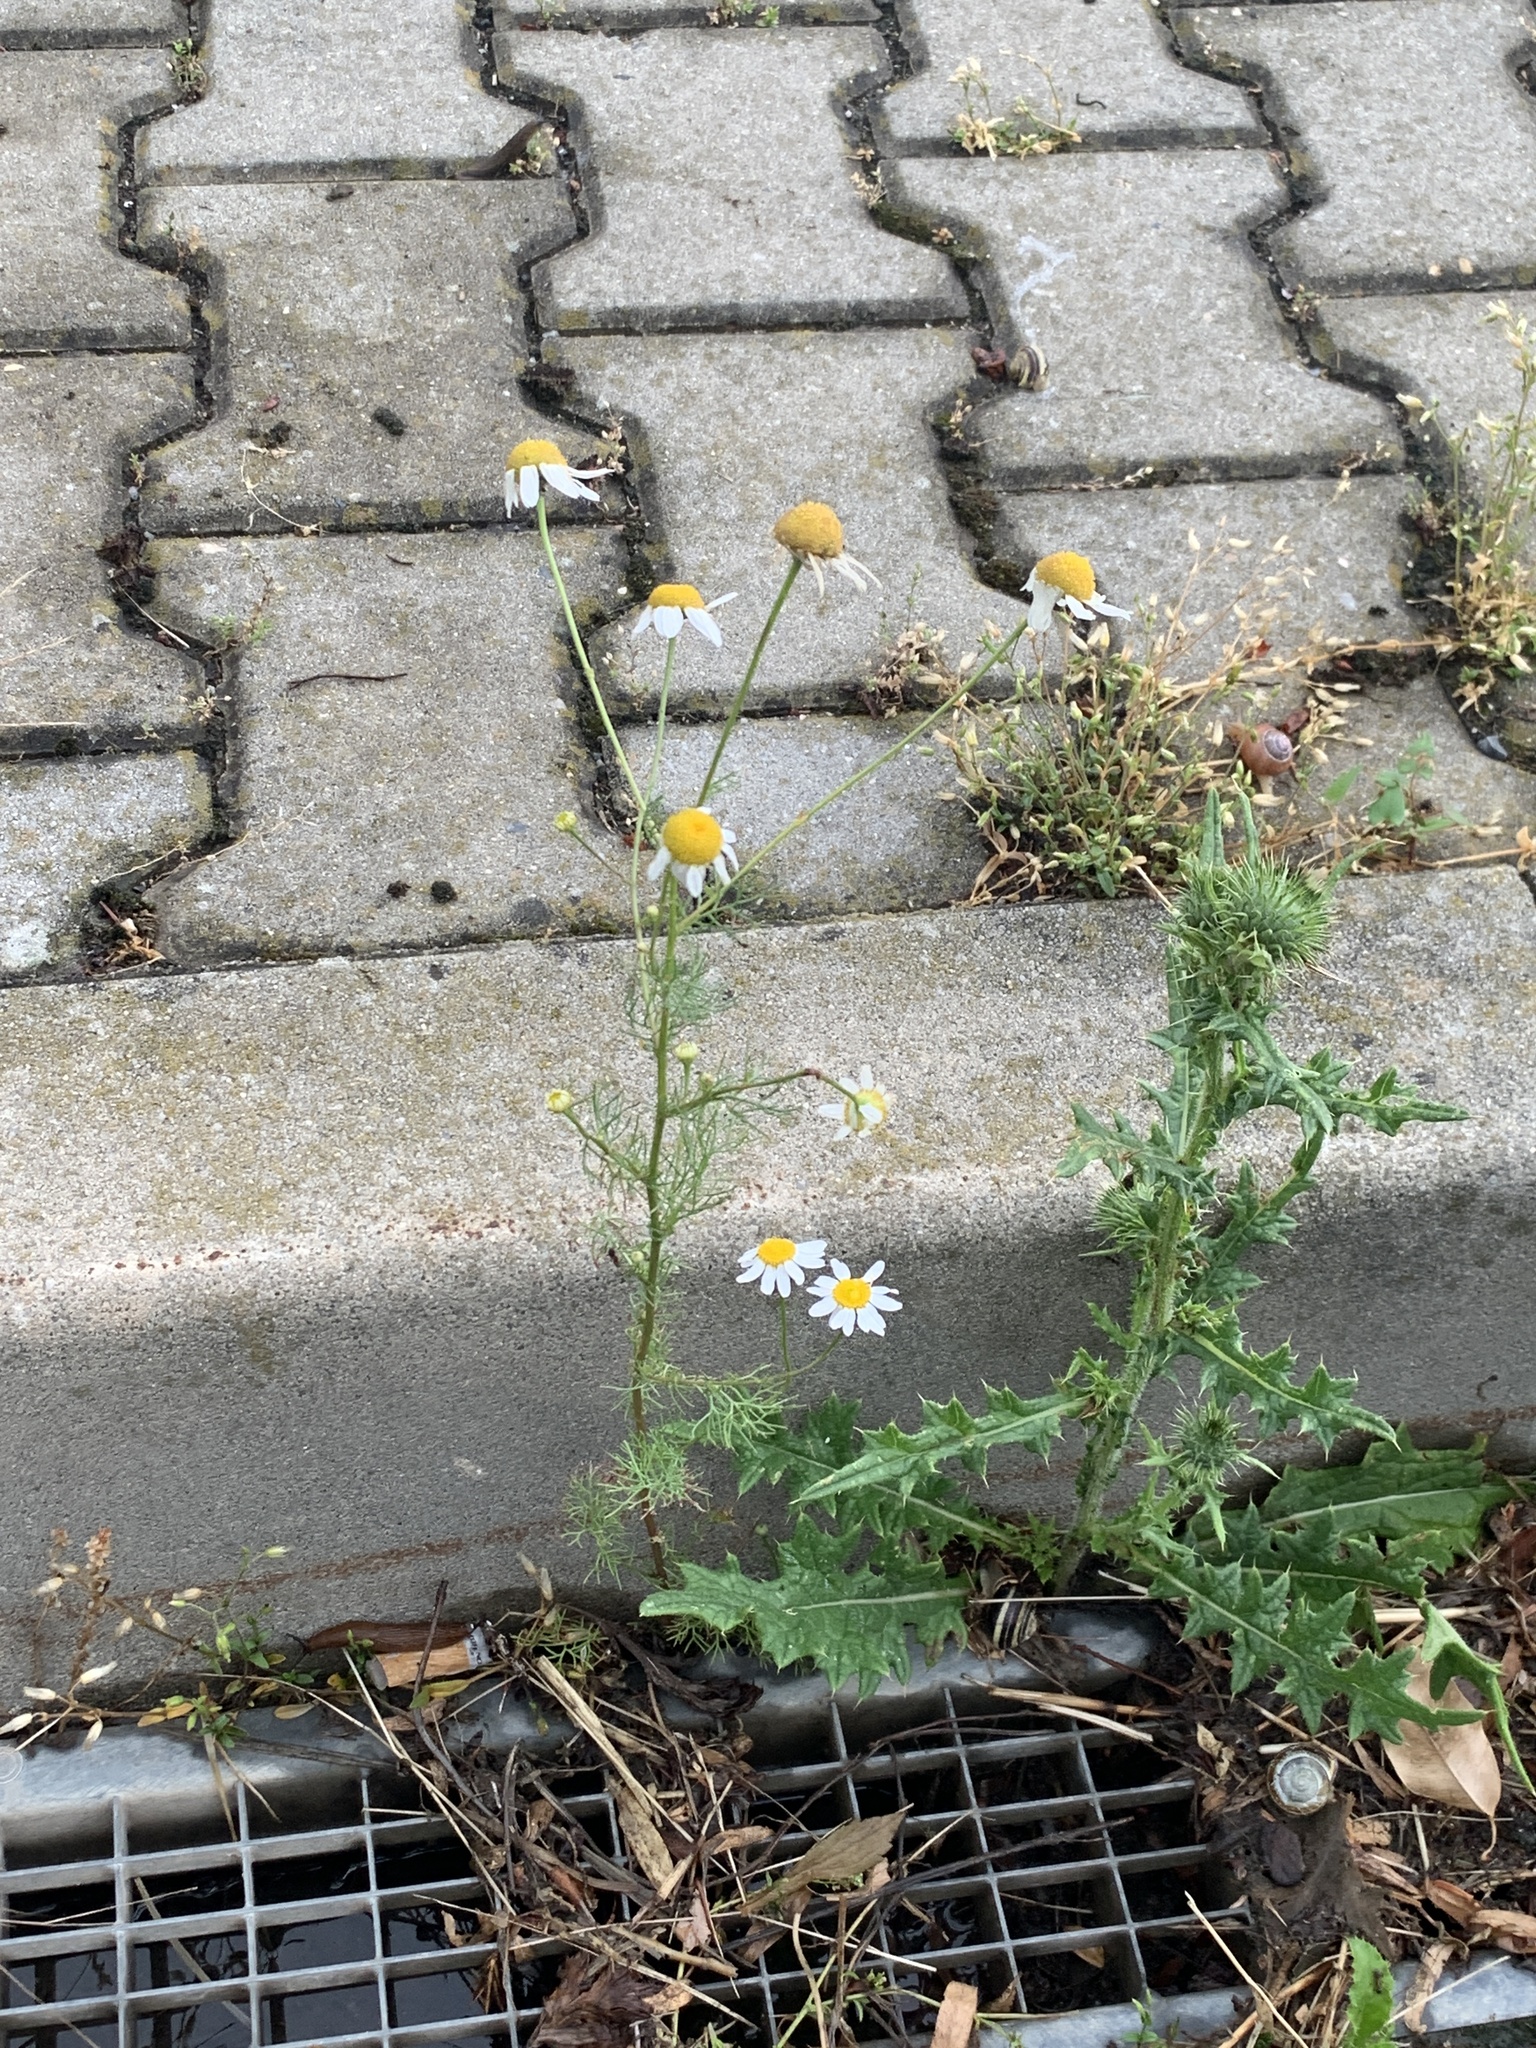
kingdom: Plantae
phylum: Tracheophyta
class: Magnoliopsida
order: Asterales
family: Asteraceae
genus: Tripleurospermum
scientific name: Tripleurospermum inodorum
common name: Scentless mayweed
